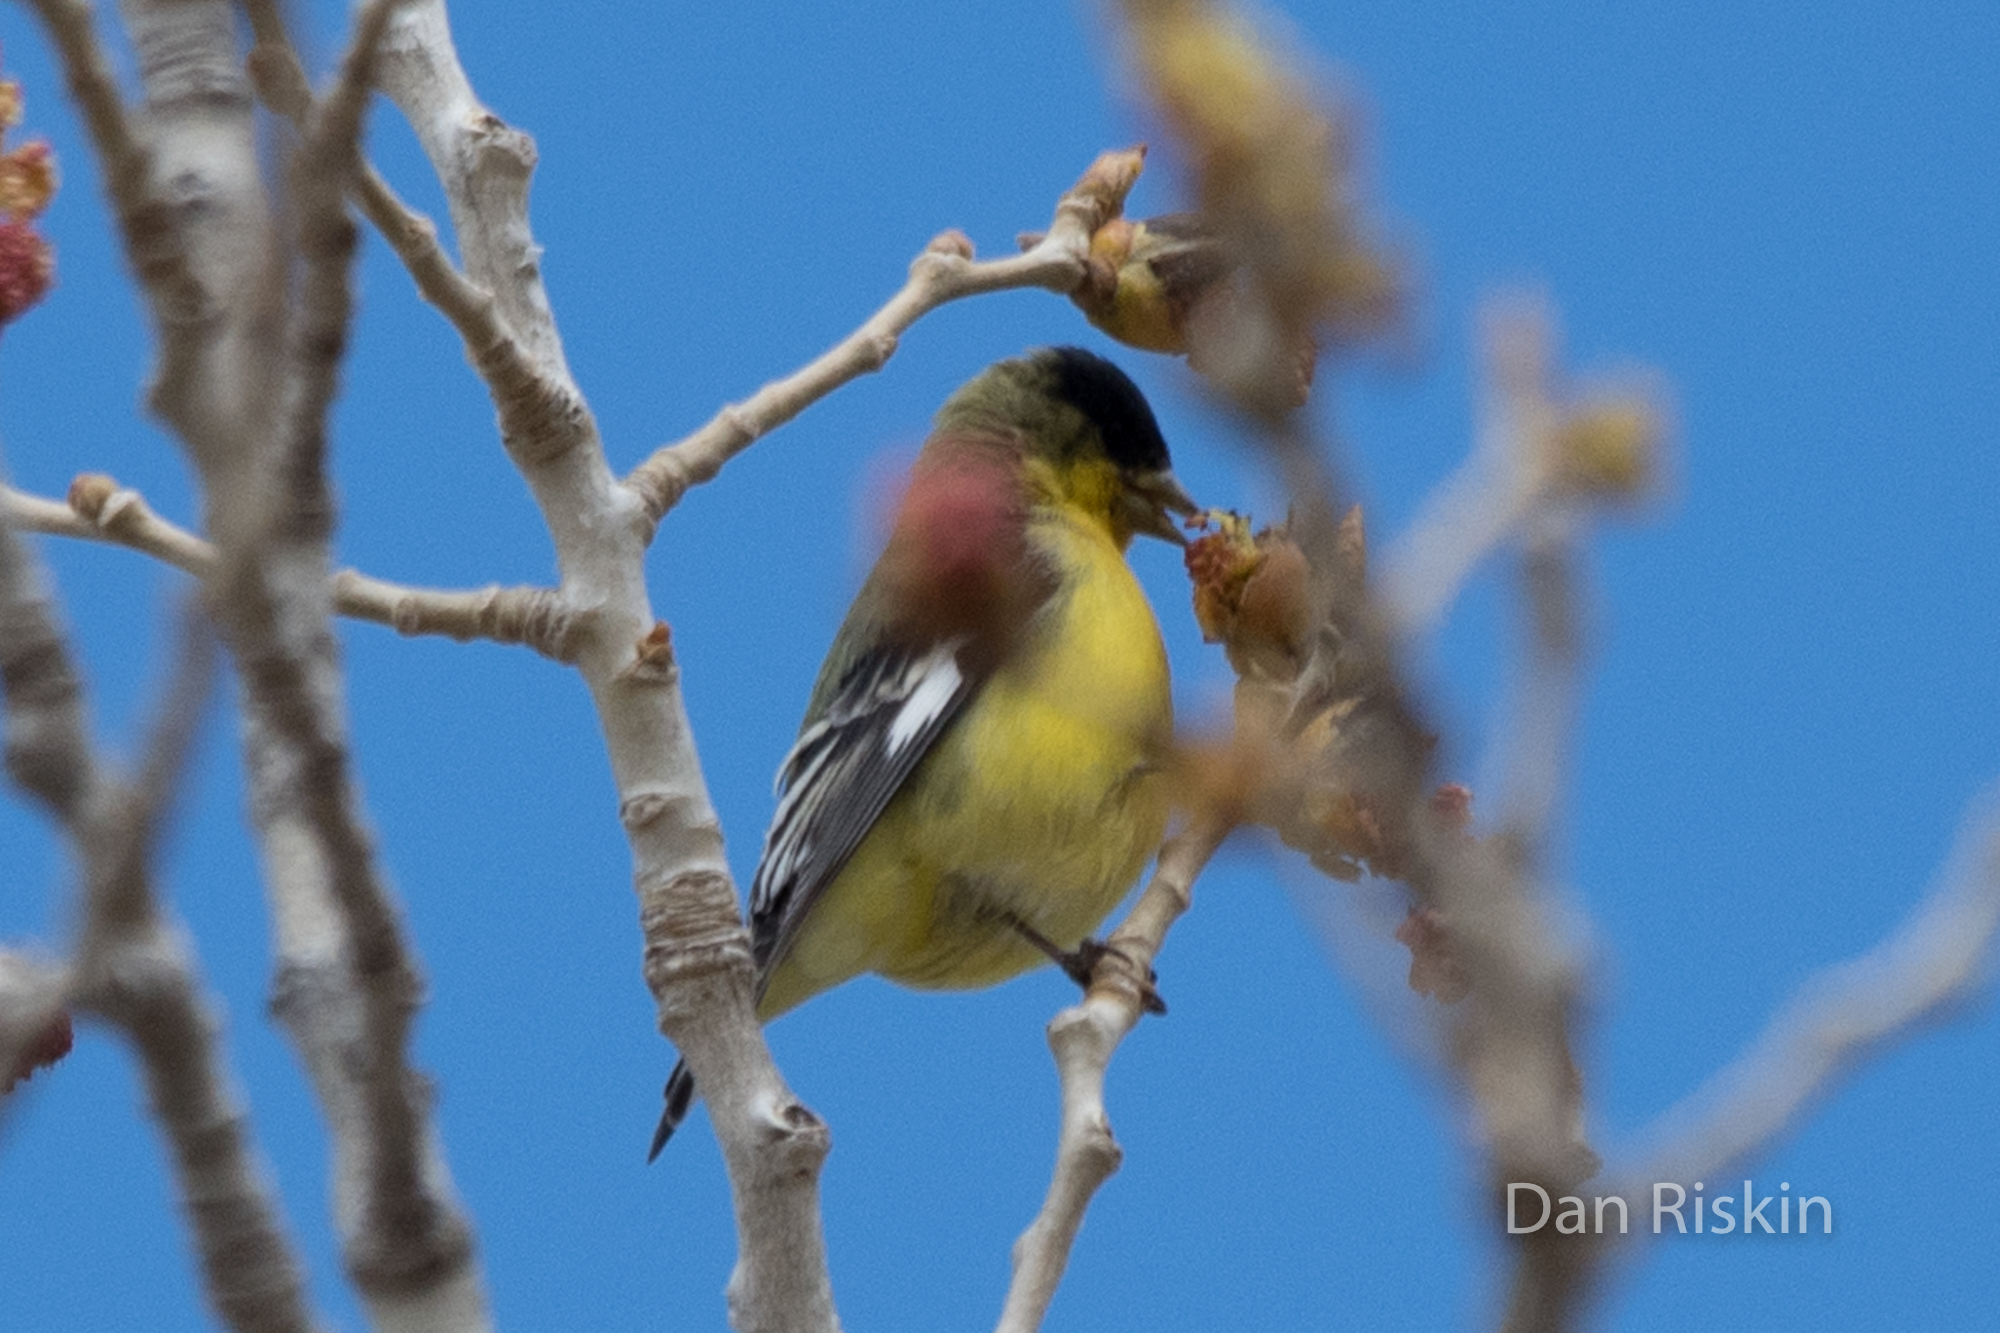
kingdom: Animalia
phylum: Chordata
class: Aves
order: Passeriformes
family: Fringillidae
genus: Spinus
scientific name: Spinus psaltria
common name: Lesser goldfinch
